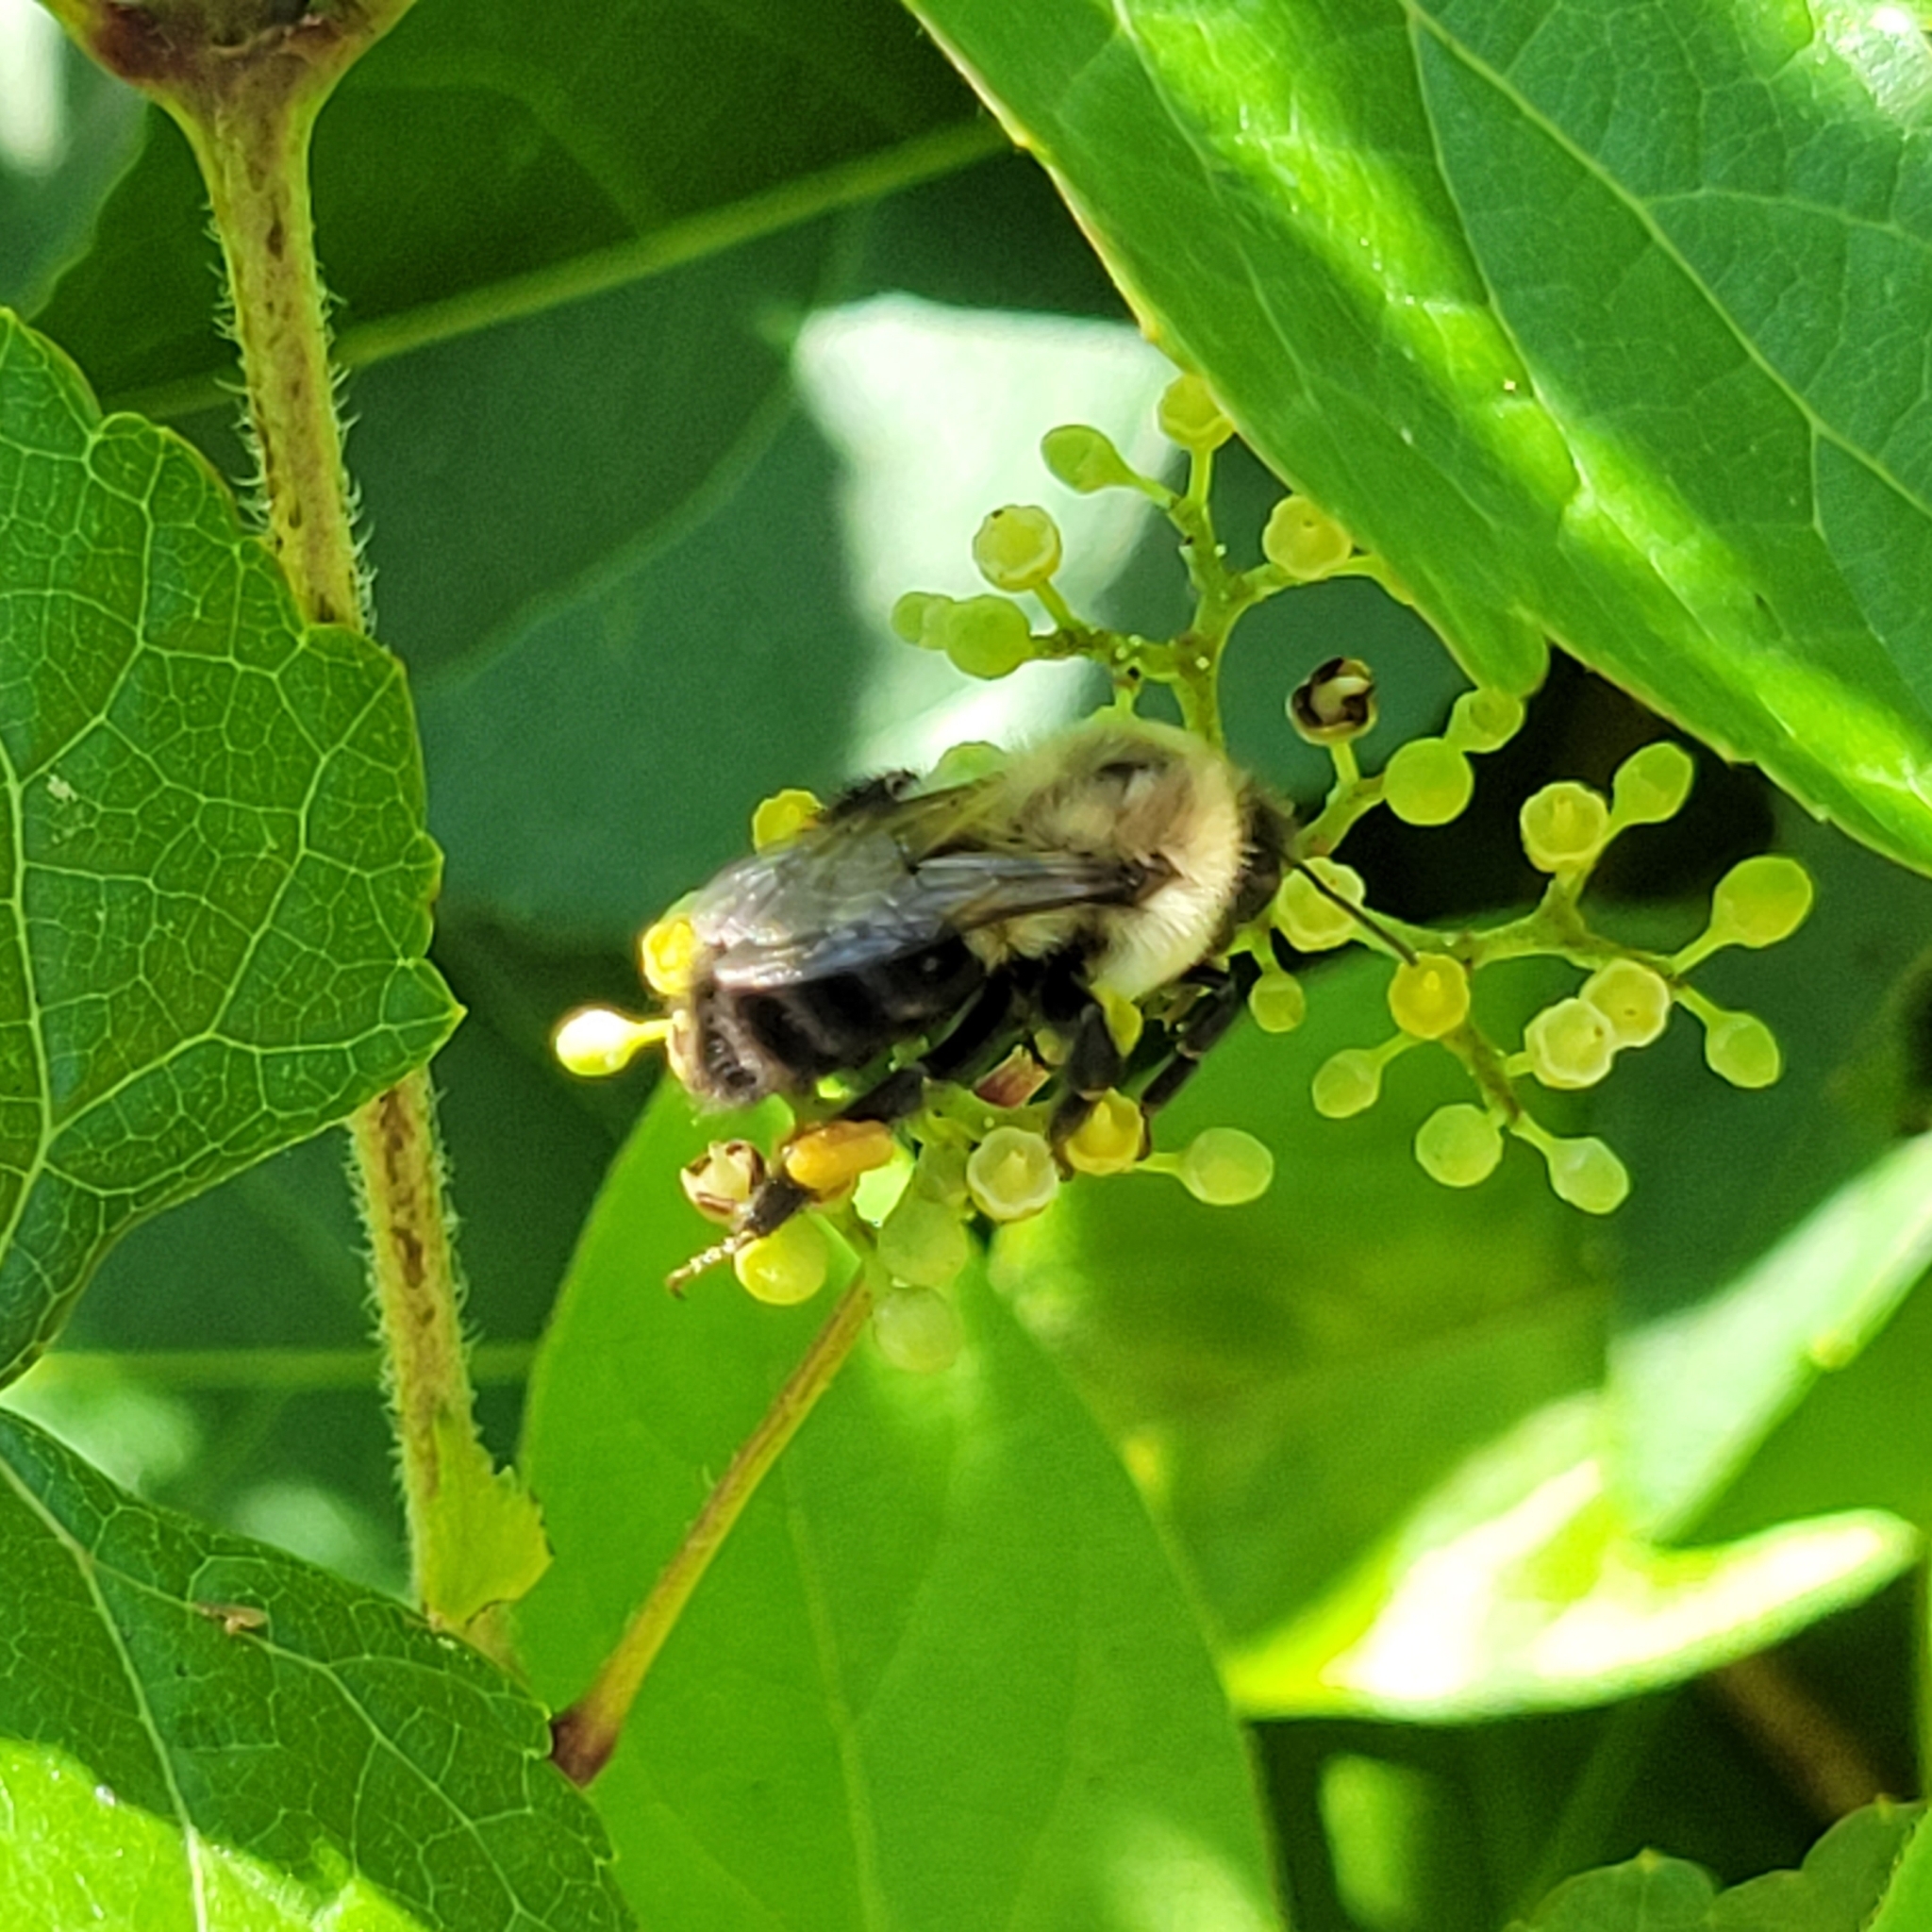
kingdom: Animalia
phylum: Arthropoda
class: Insecta
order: Hymenoptera
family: Apidae
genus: Bombus
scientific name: Bombus impatiens
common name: Common eastern bumble bee
